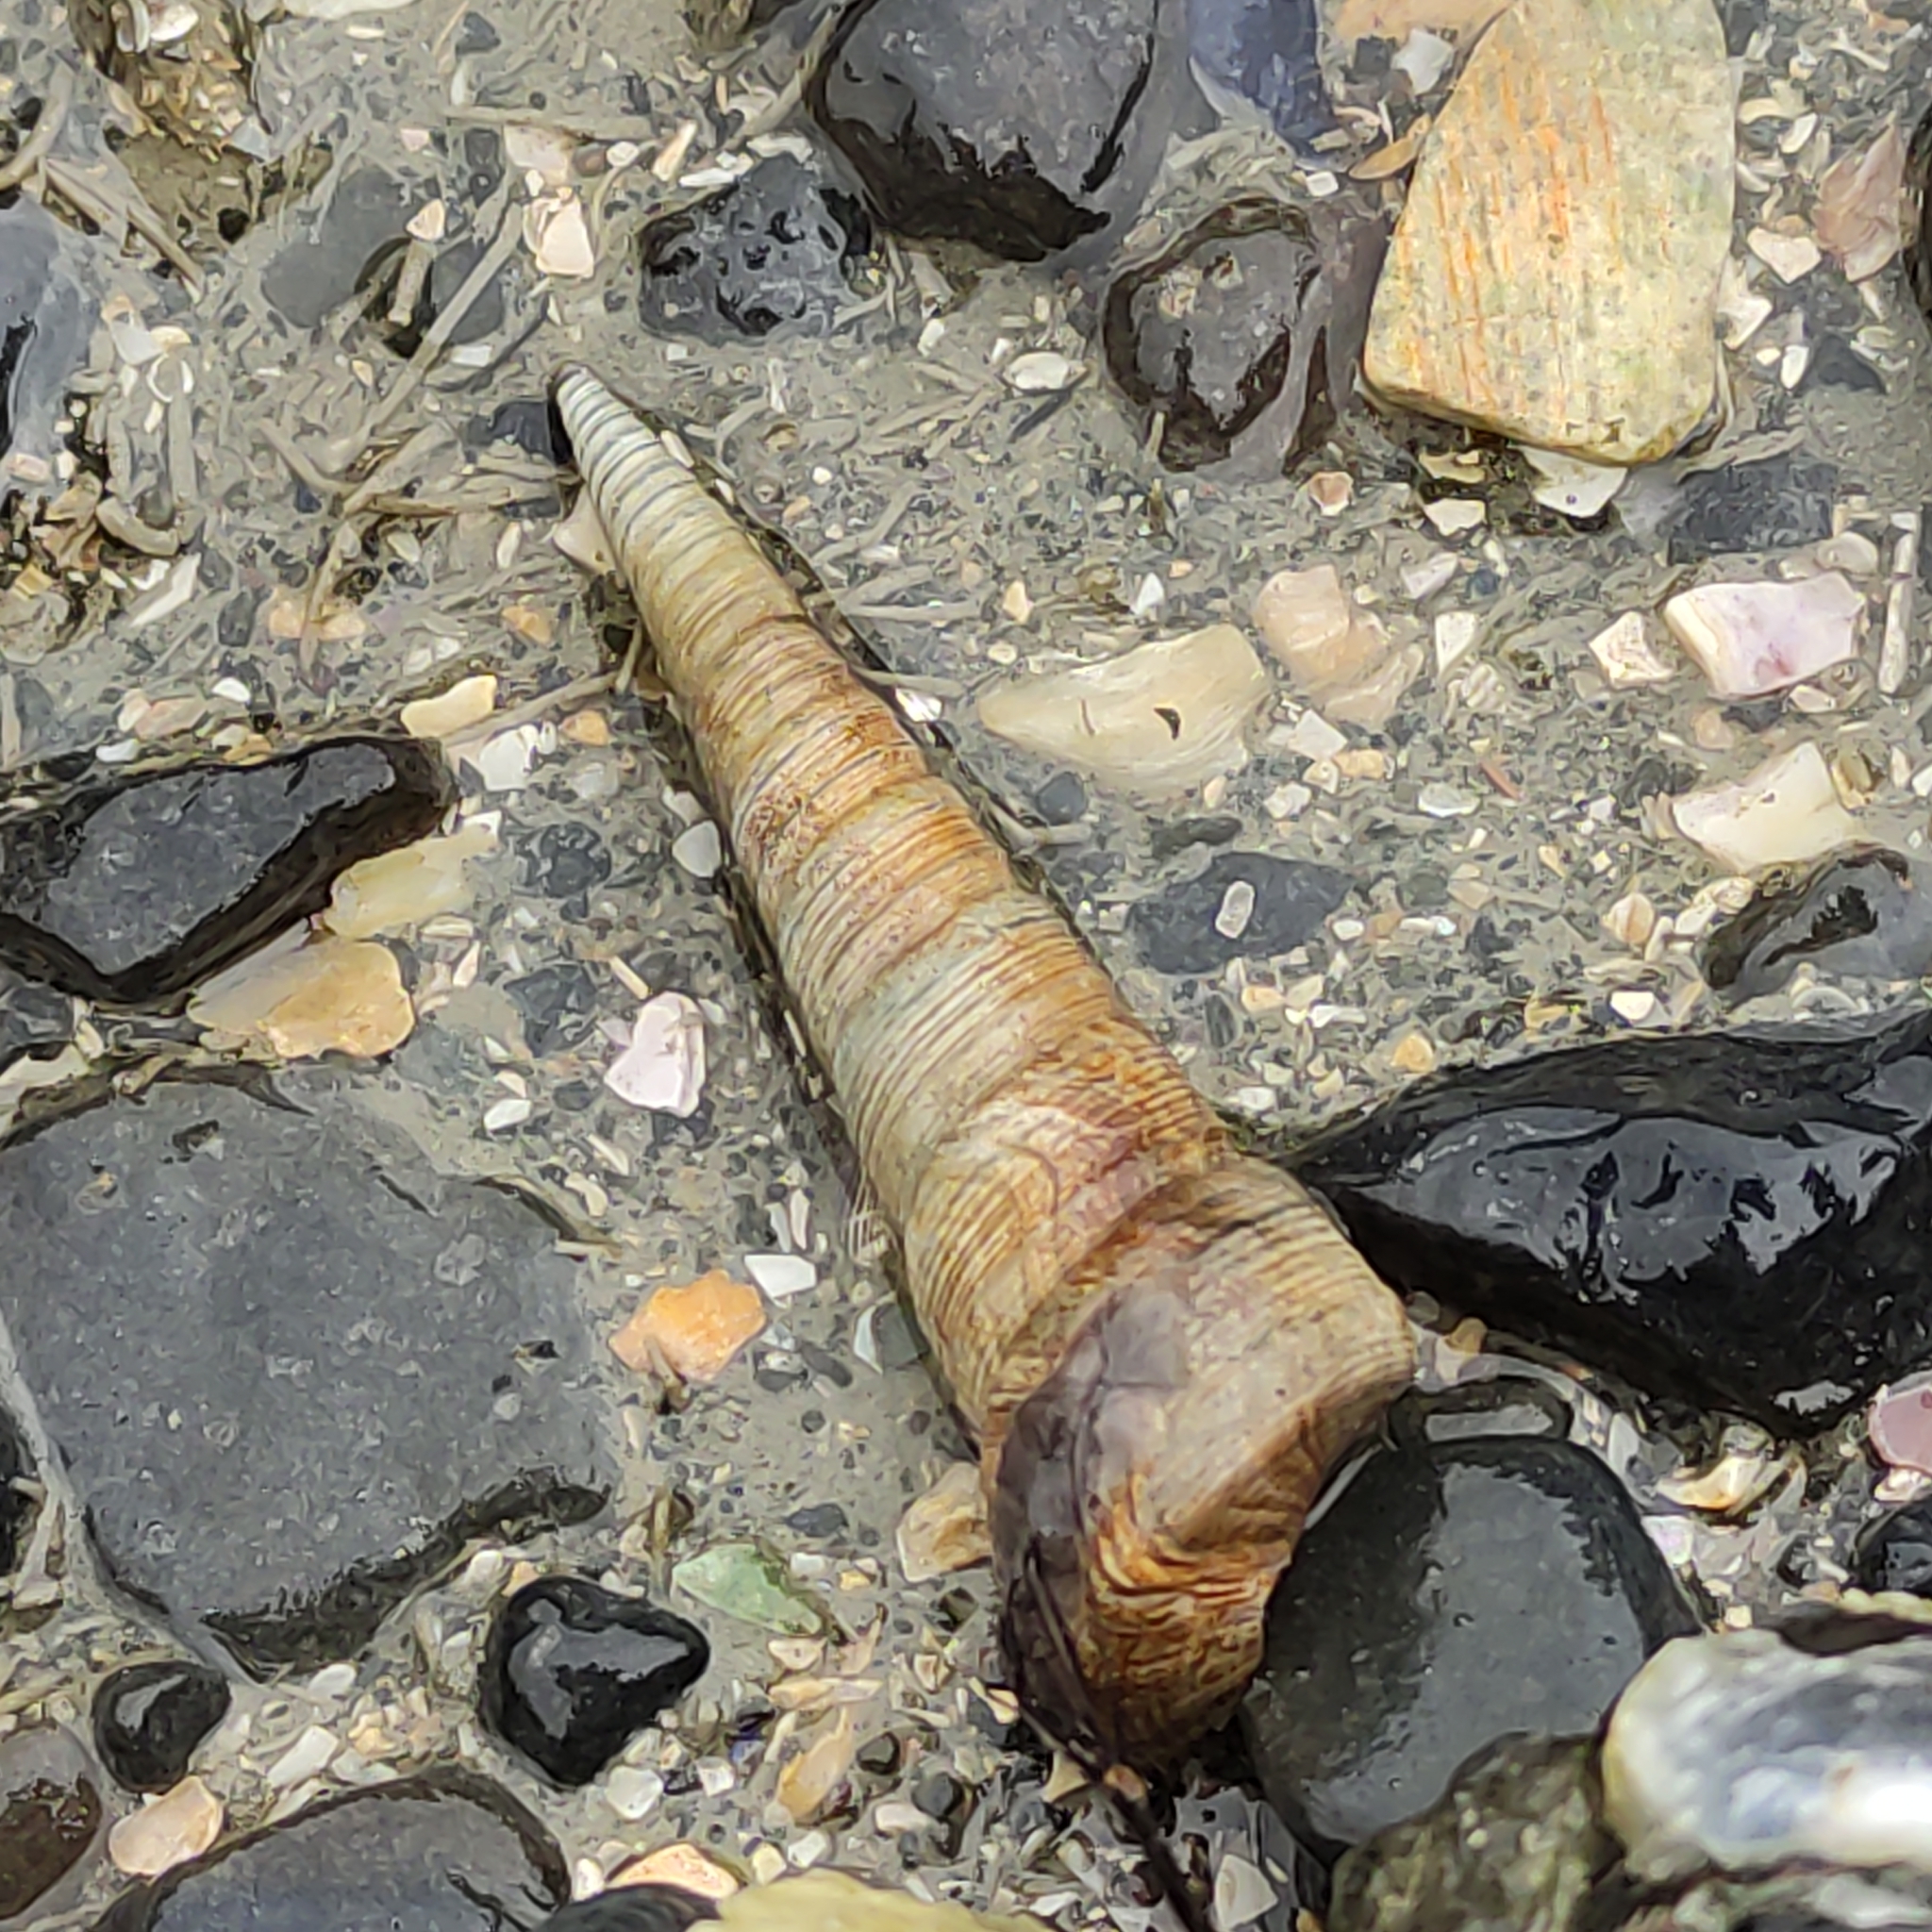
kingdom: Animalia
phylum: Mollusca
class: Gastropoda
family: Turritellidae
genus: Maoricolpus
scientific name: Maoricolpus roseus
